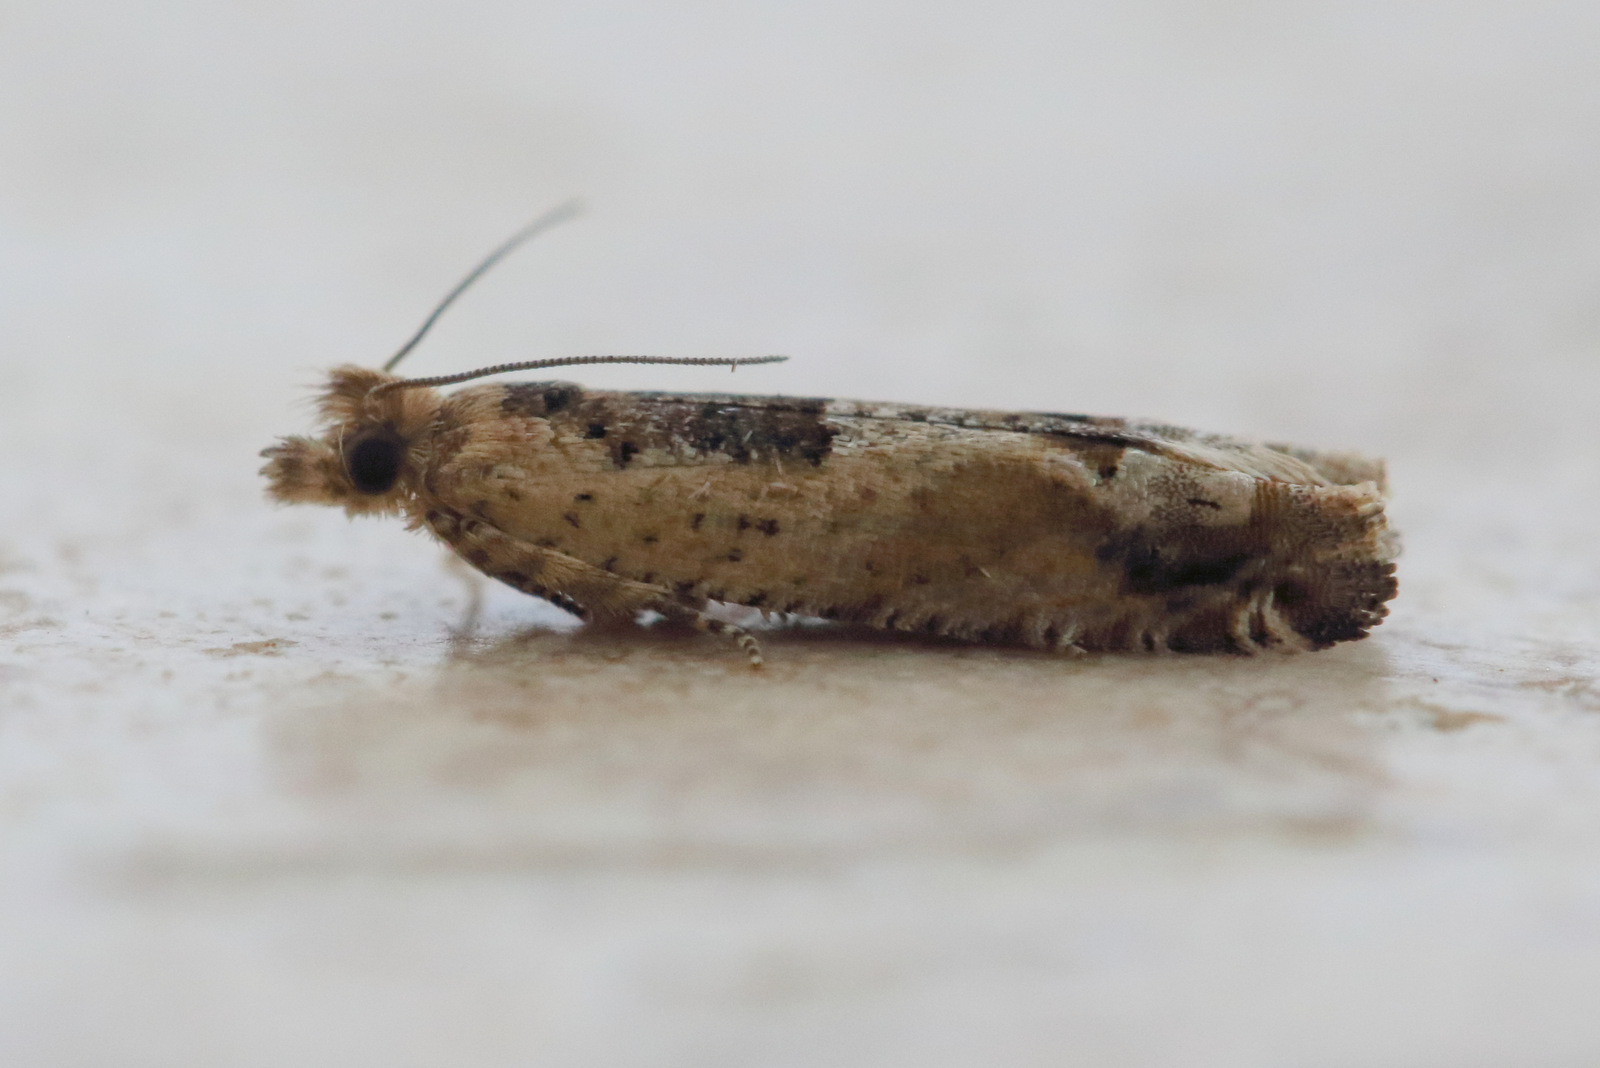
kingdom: Animalia
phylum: Arthropoda
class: Insecta
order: Lepidoptera
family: Tortricidae
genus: Crocidosema
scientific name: Crocidosema plebejana
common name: Southern bell
